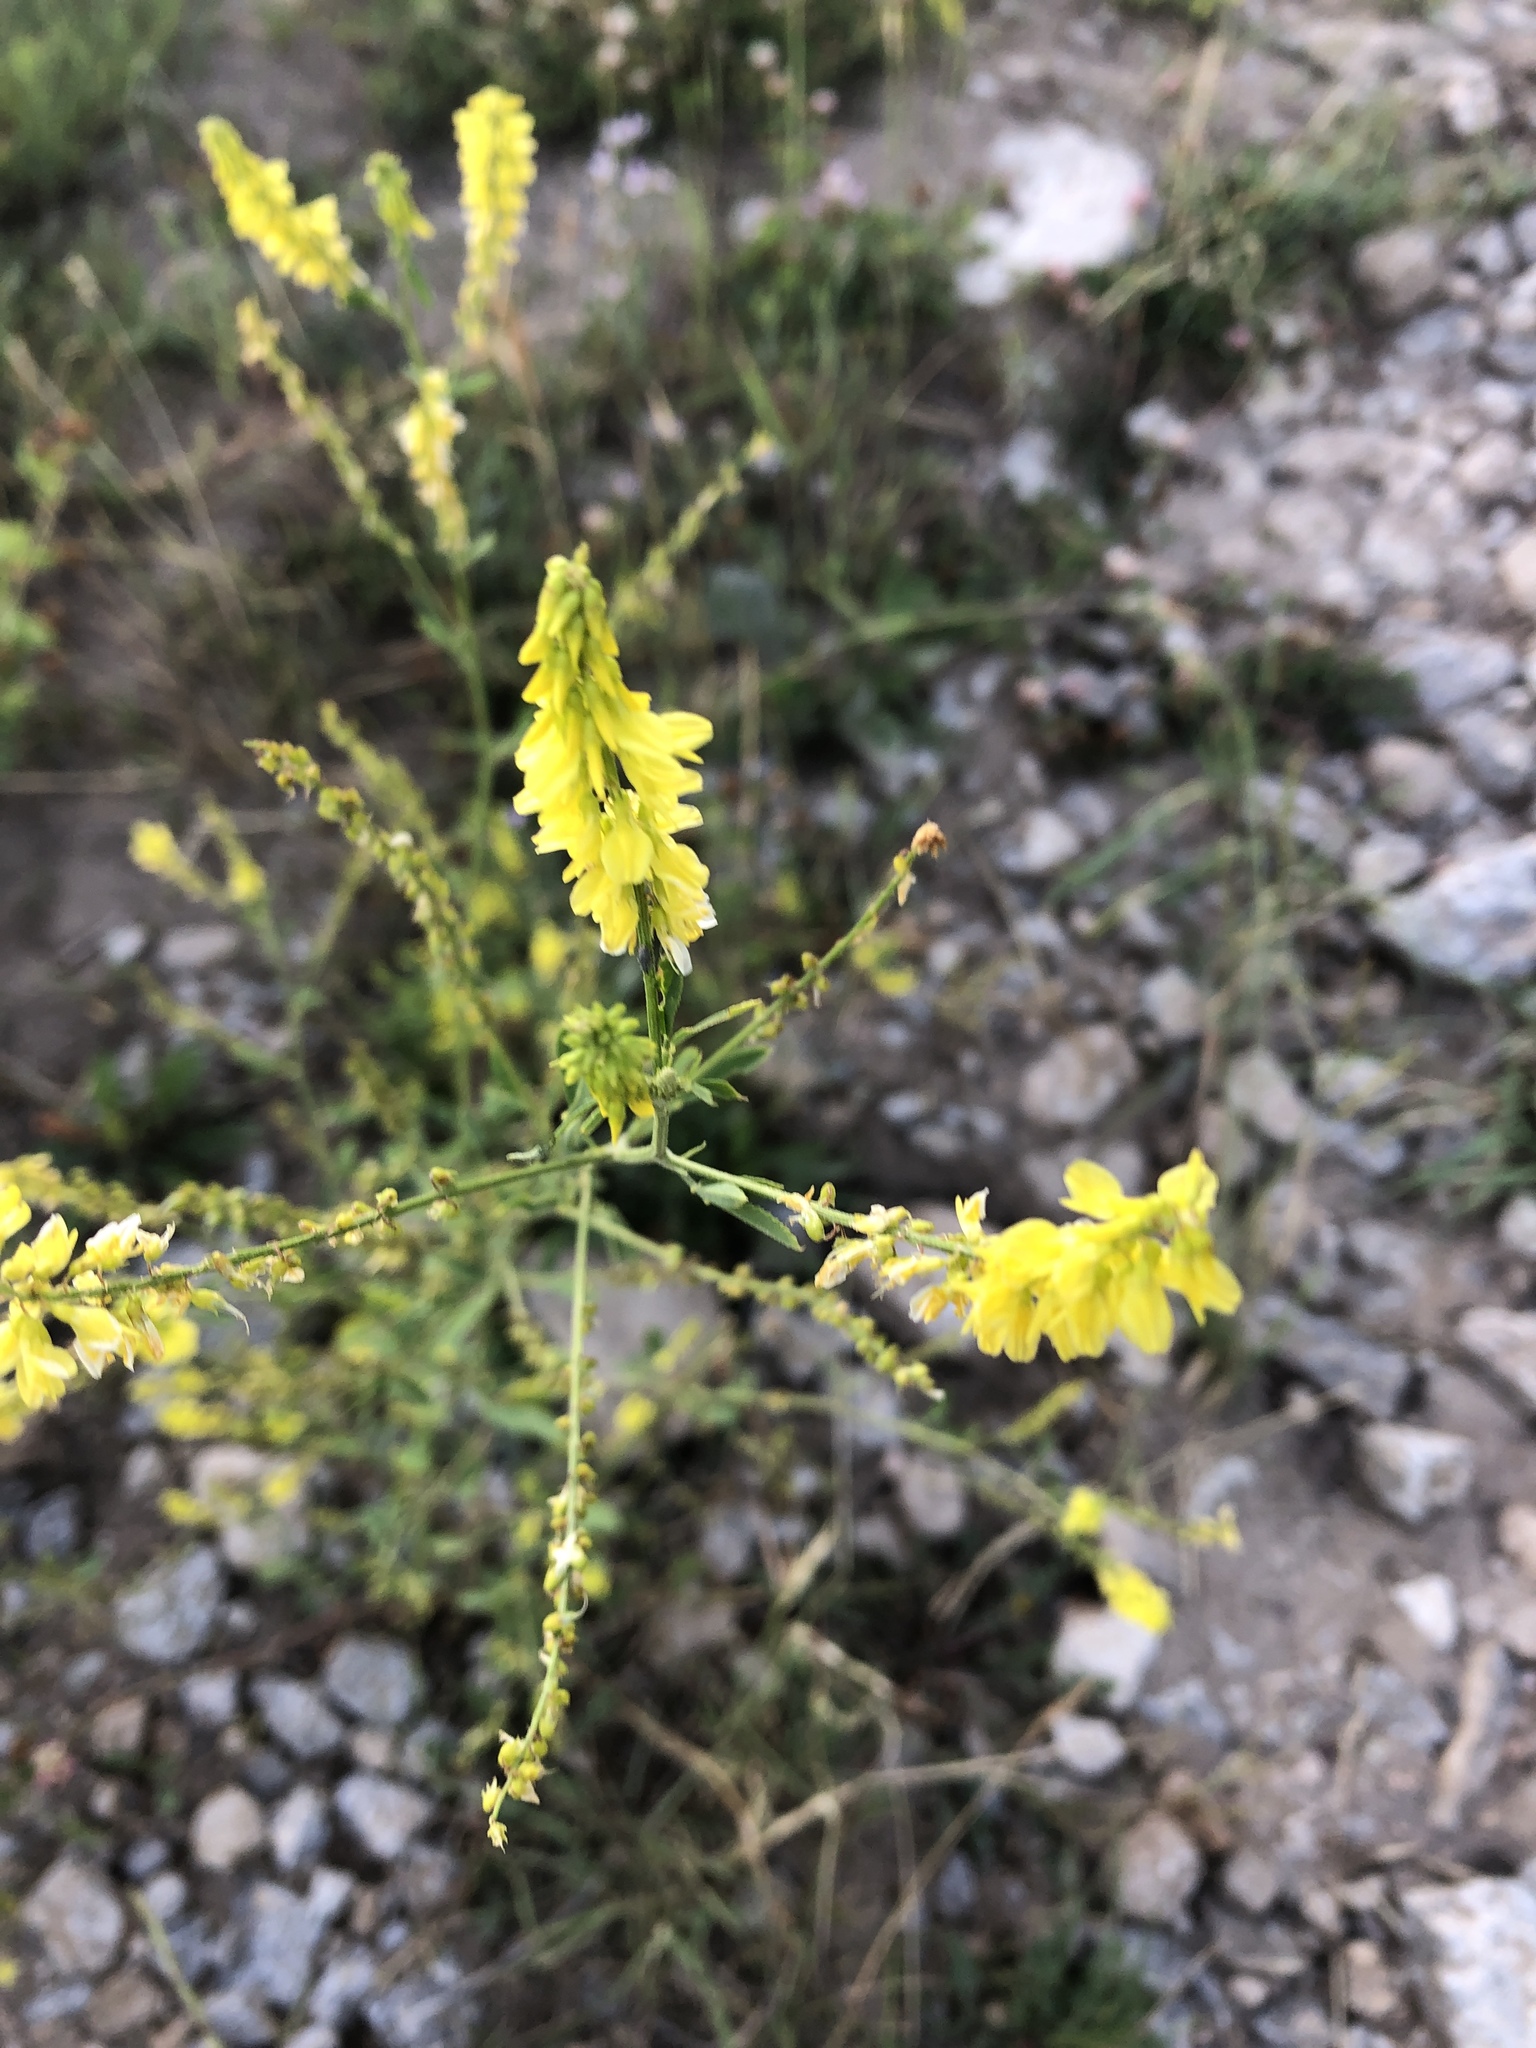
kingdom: Plantae
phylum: Tracheophyta
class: Magnoliopsida
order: Fabales
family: Fabaceae
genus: Melilotus
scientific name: Melilotus officinalis
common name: Sweetclover
